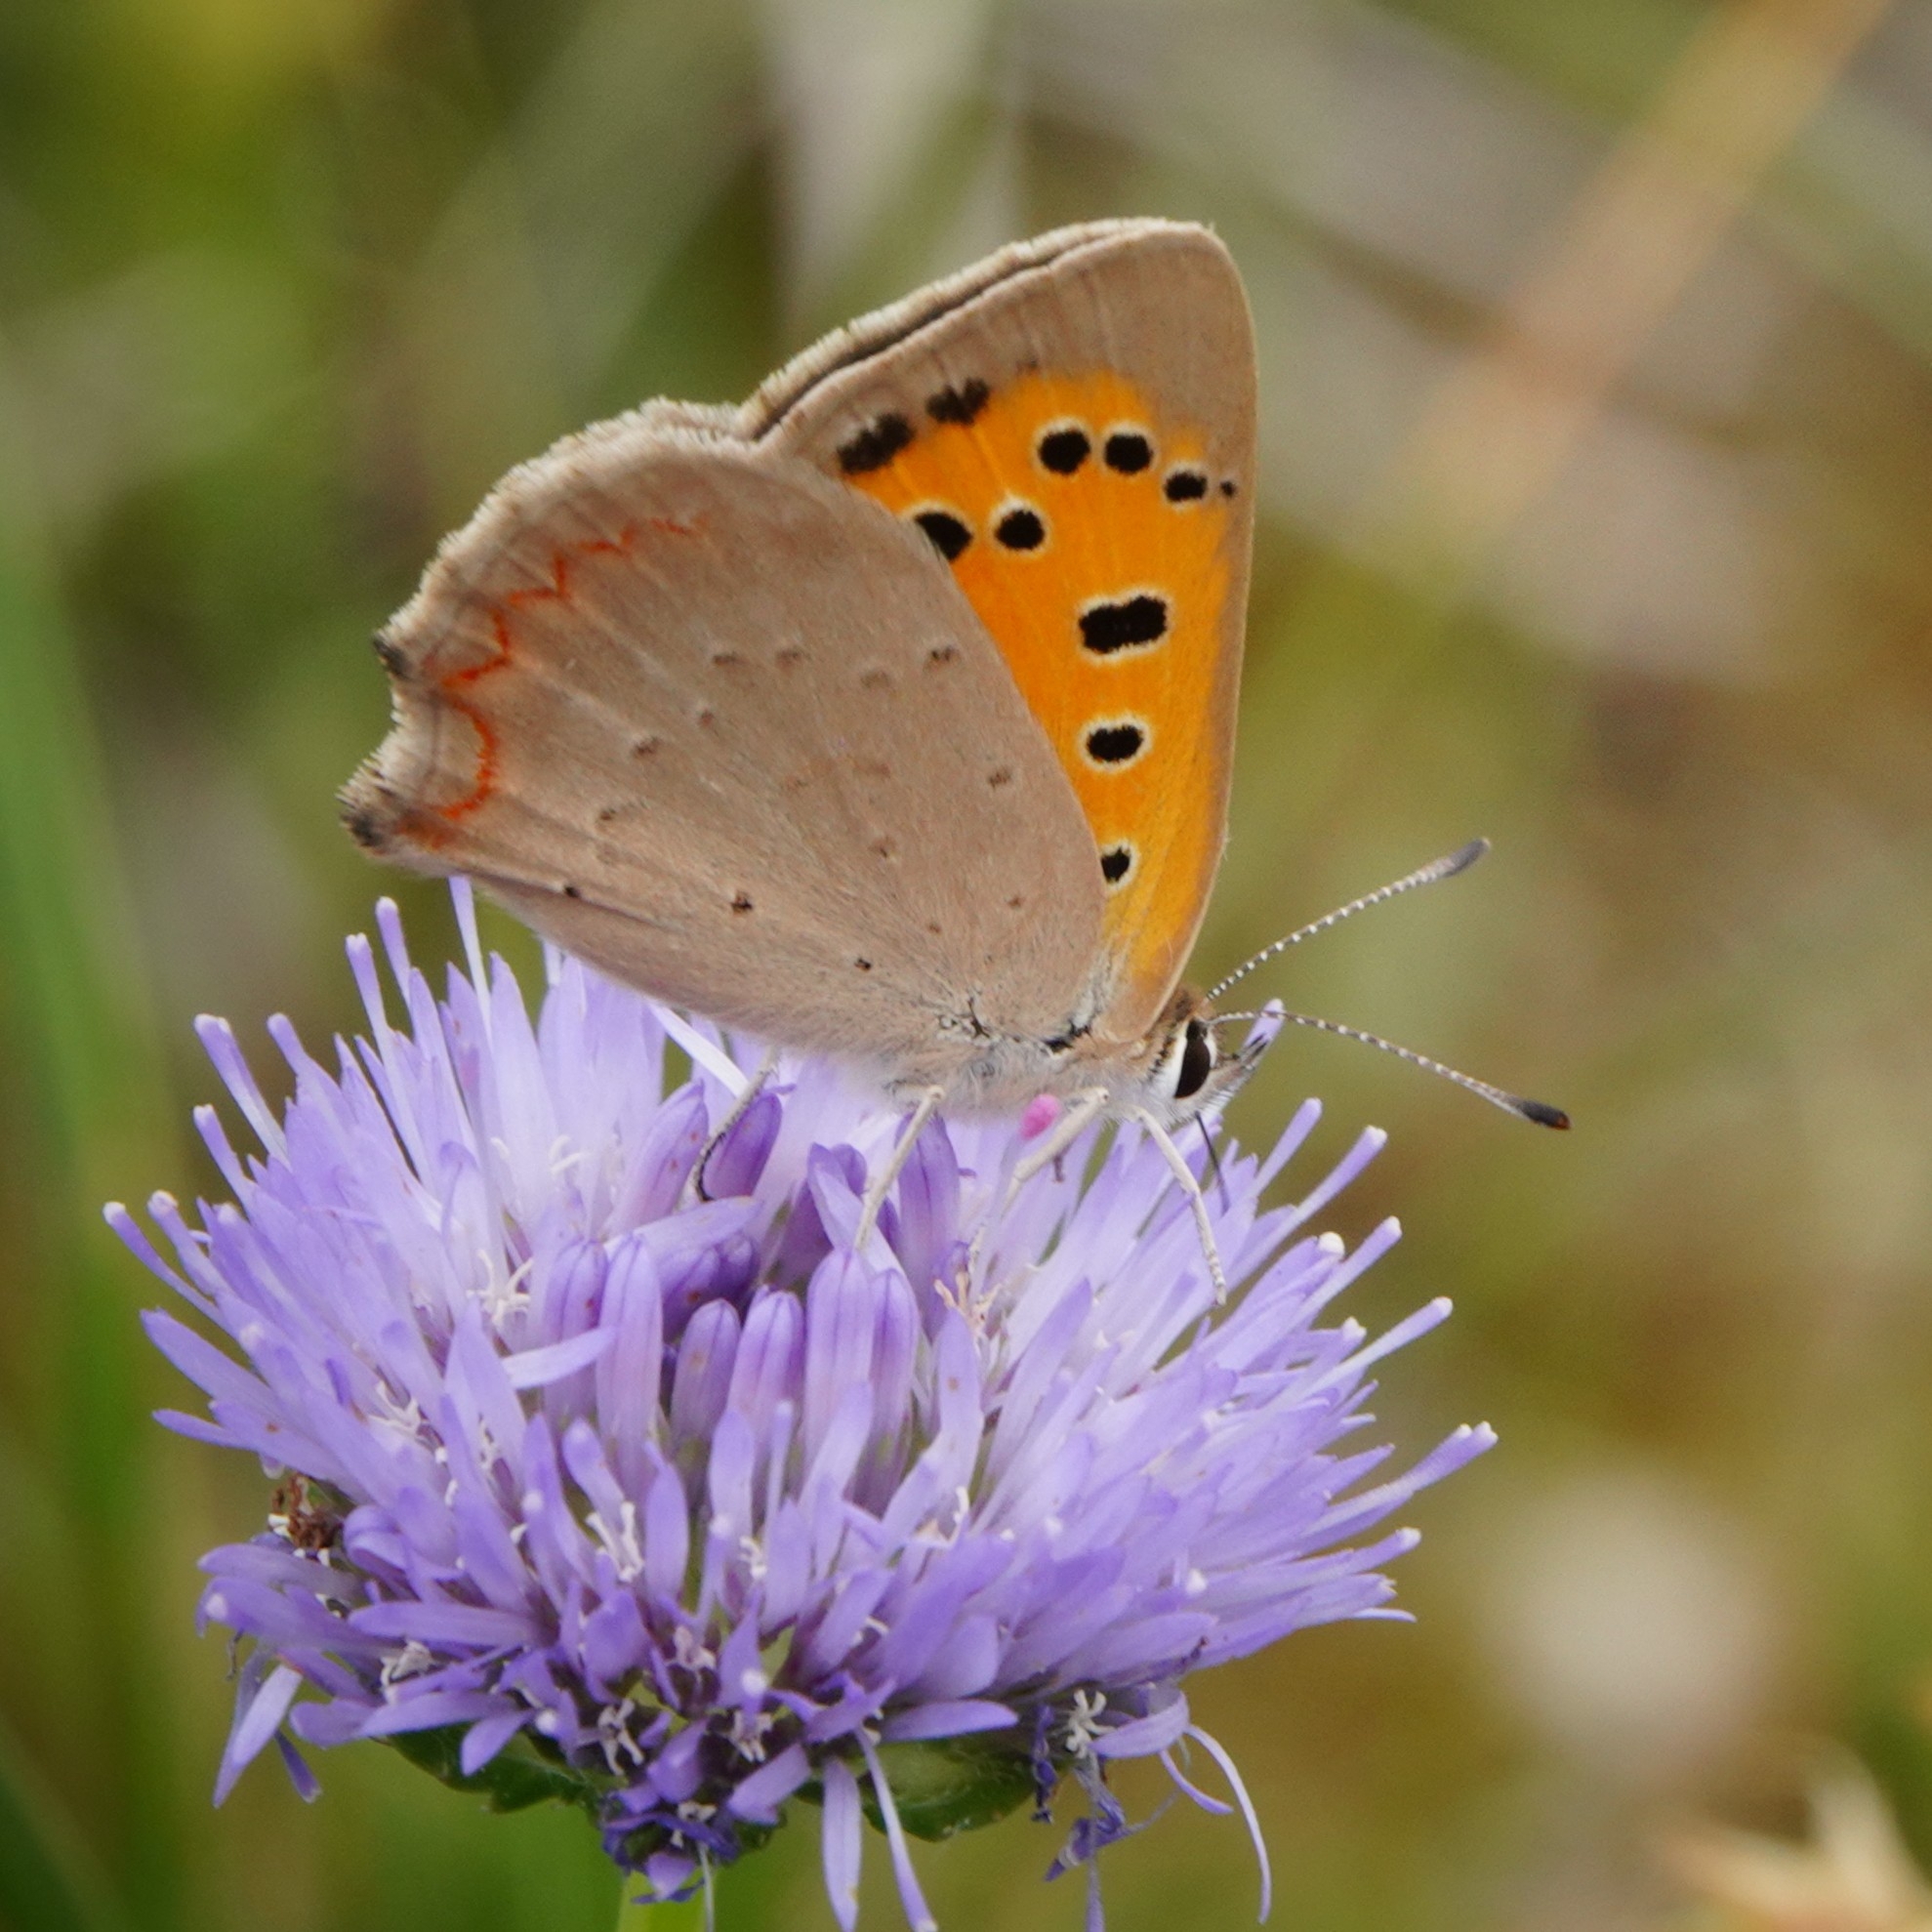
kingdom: Animalia
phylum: Arthropoda
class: Insecta
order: Lepidoptera
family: Lycaenidae
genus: Lycaena
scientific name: Lycaena phlaeas
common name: Small copper
